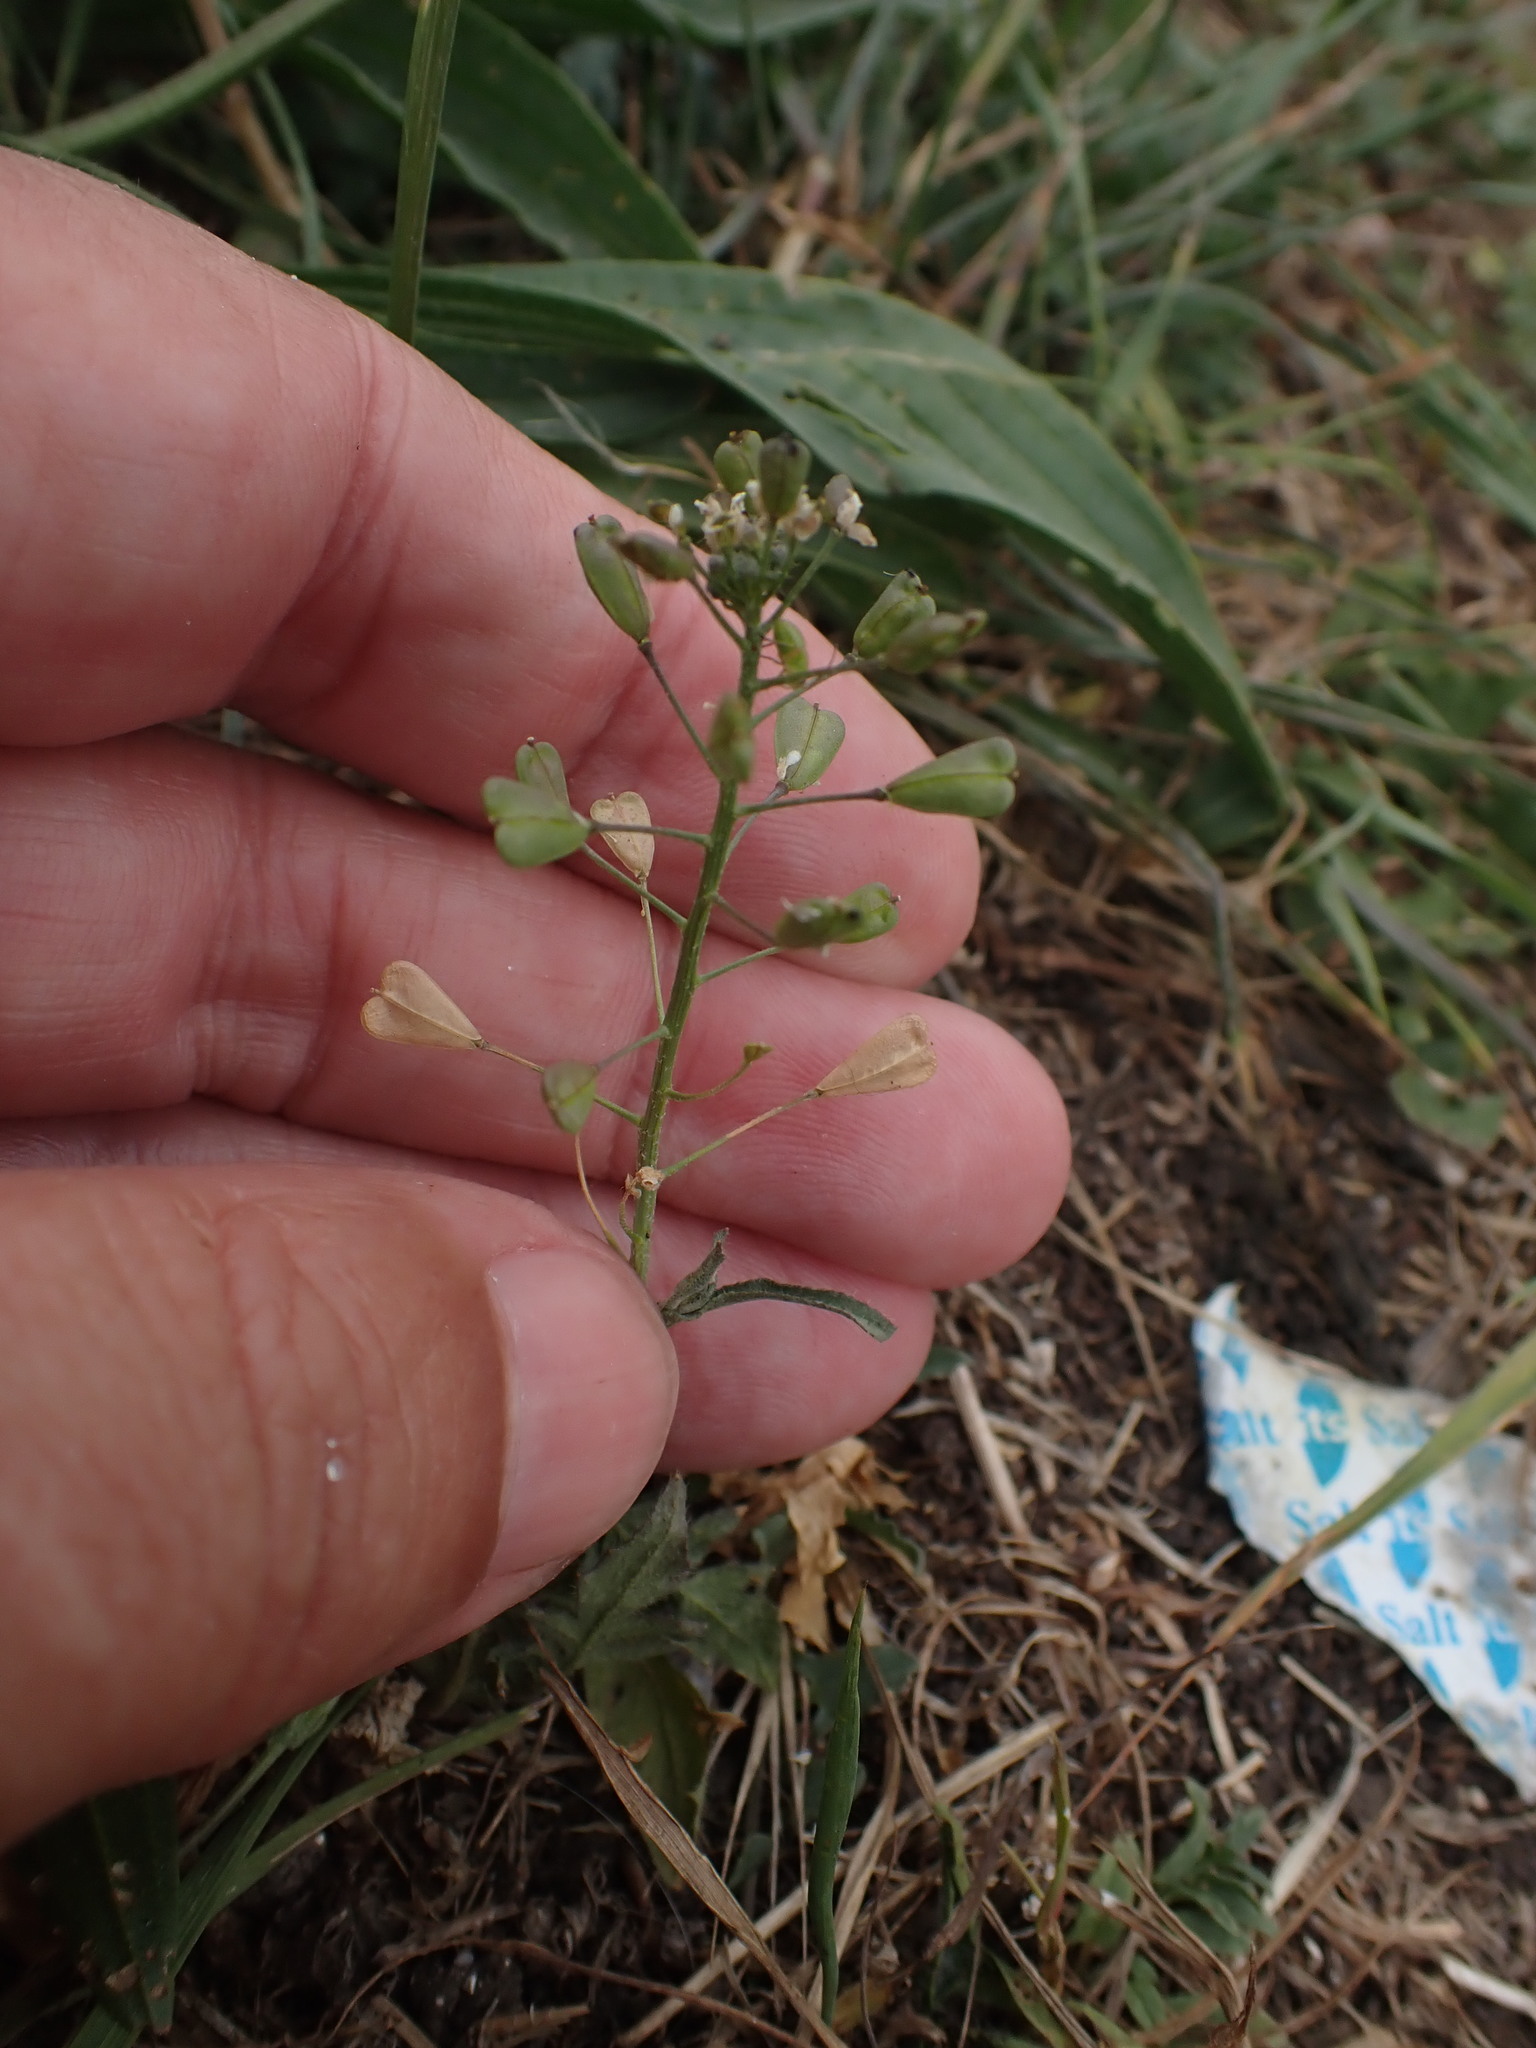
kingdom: Plantae
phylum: Tracheophyta
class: Magnoliopsida
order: Brassicales
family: Brassicaceae
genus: Capsella
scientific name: Capsella bursa-pastoris
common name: Shepherd's purse
